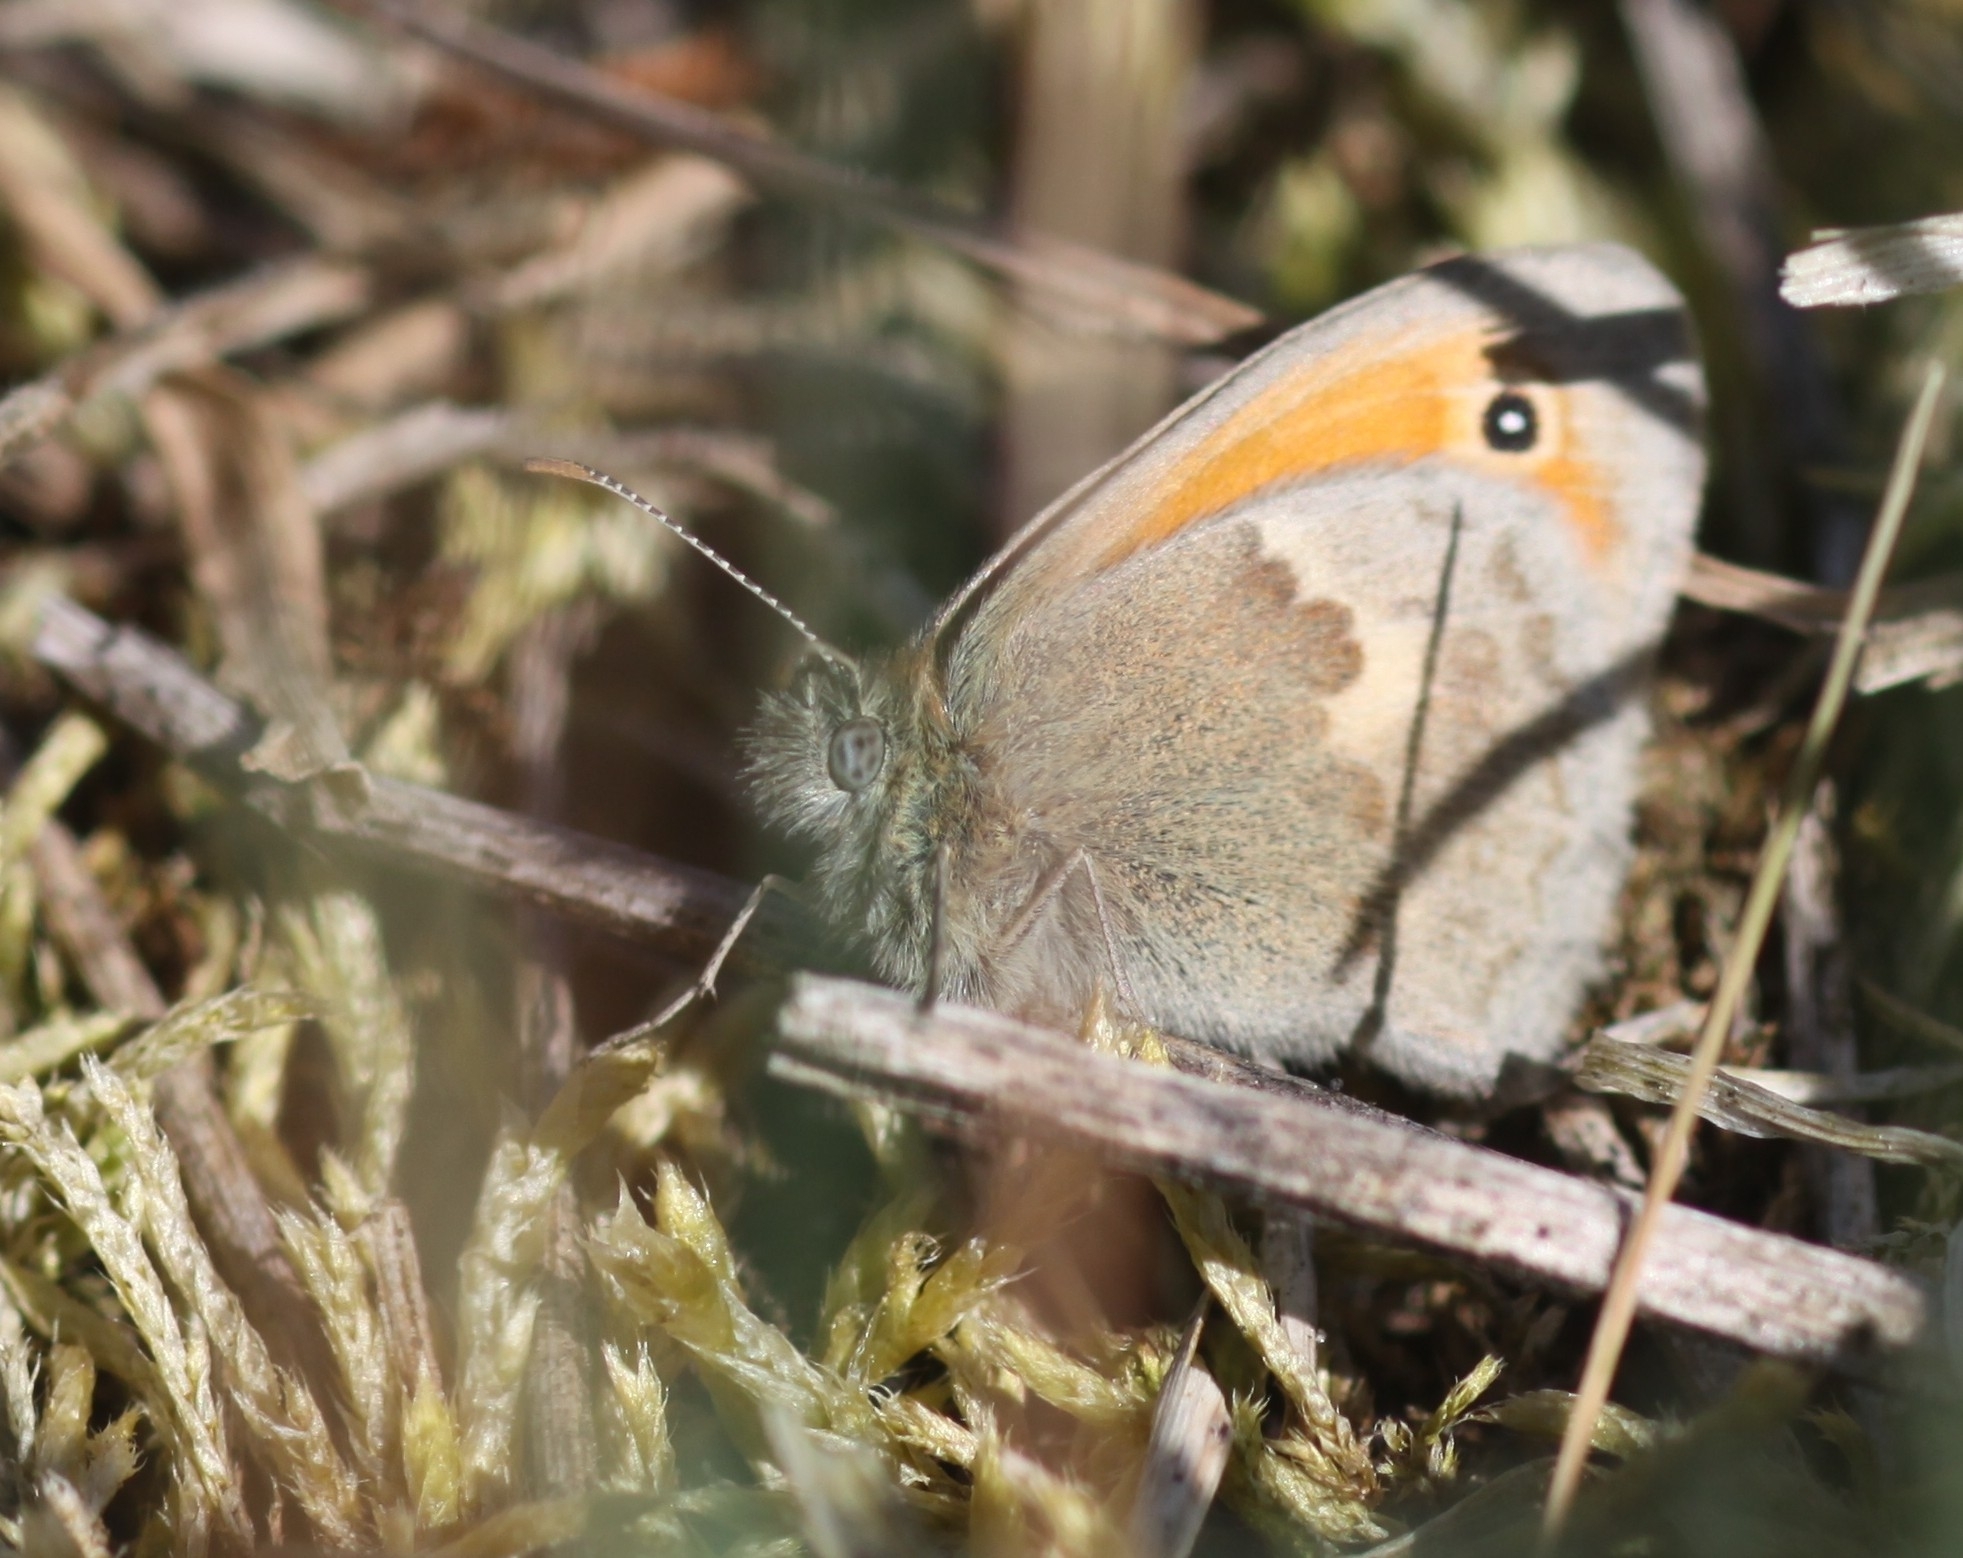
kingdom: Animalia
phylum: Arthropoda
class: Insecta
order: Lepidoptera
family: Nymphalidae
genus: Coenonympha
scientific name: Coenonympha pamphilus
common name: Small heath
